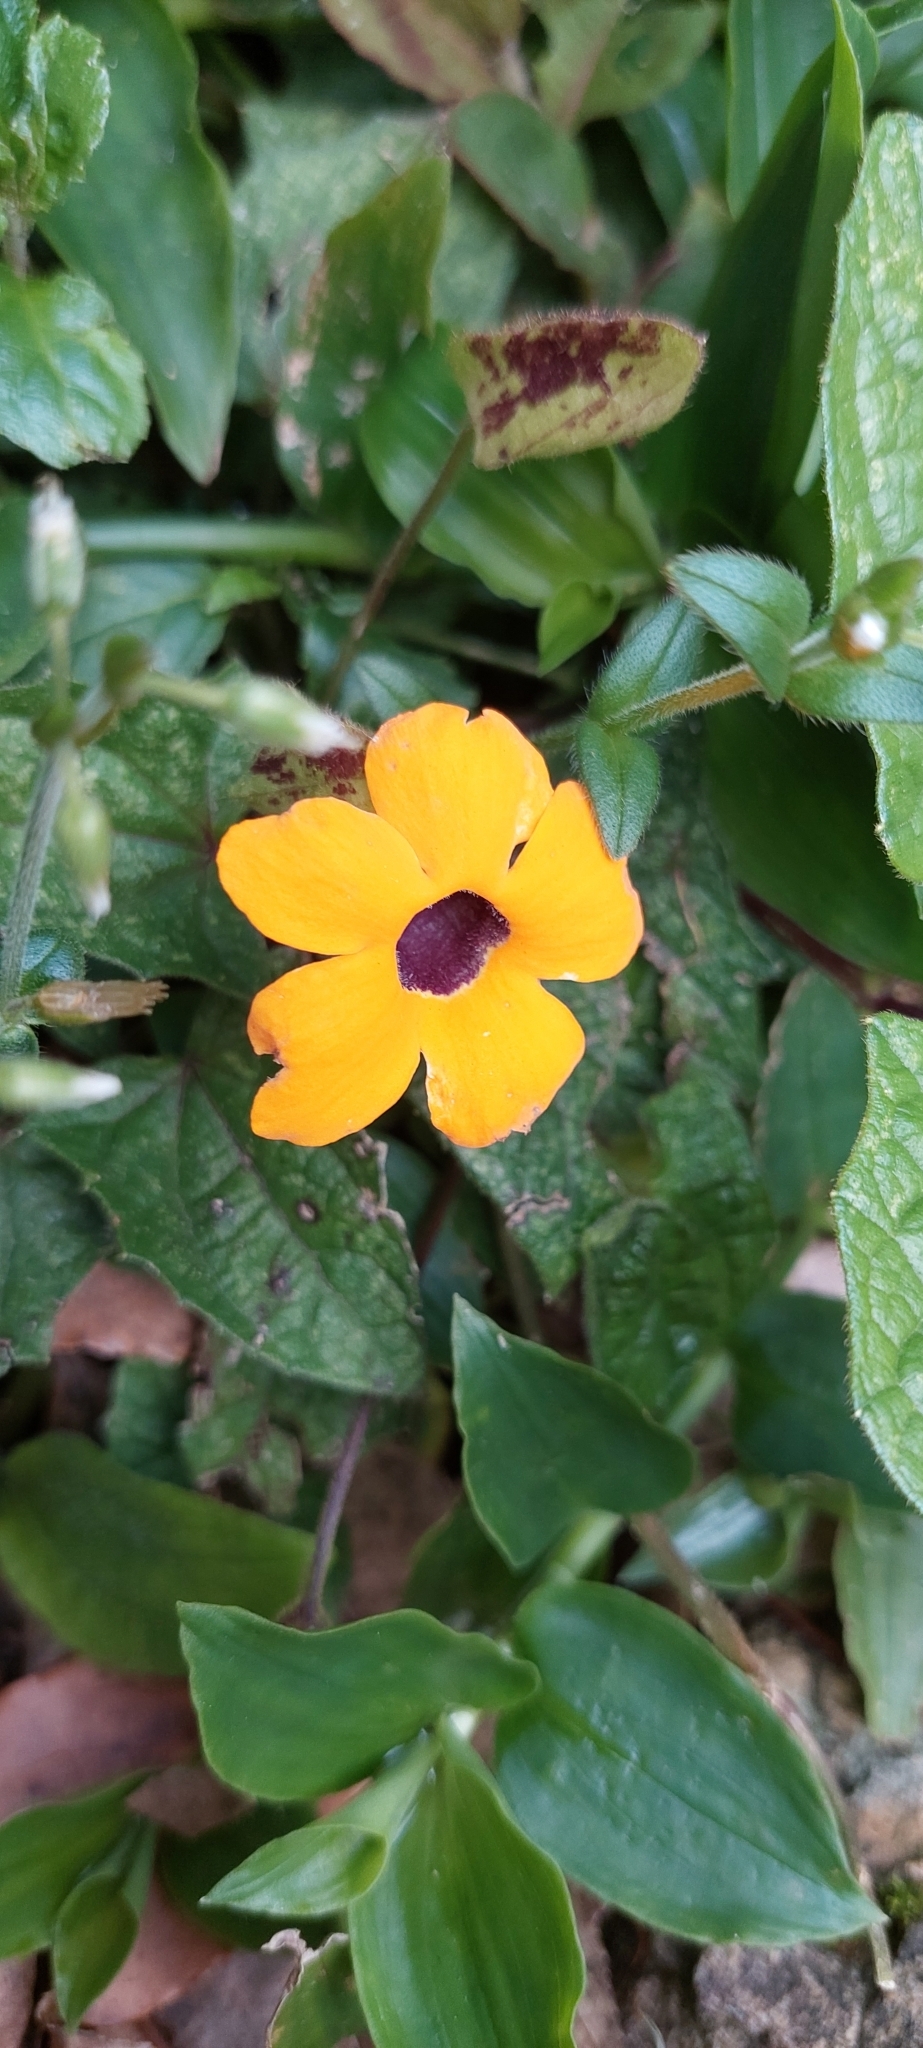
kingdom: Plantae
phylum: Tracheophyta
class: Magnoliopsida
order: Lamiales
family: Acanthaceae
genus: Thunbergia
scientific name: Thunbergia alata
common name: Blackeyed susan vine
